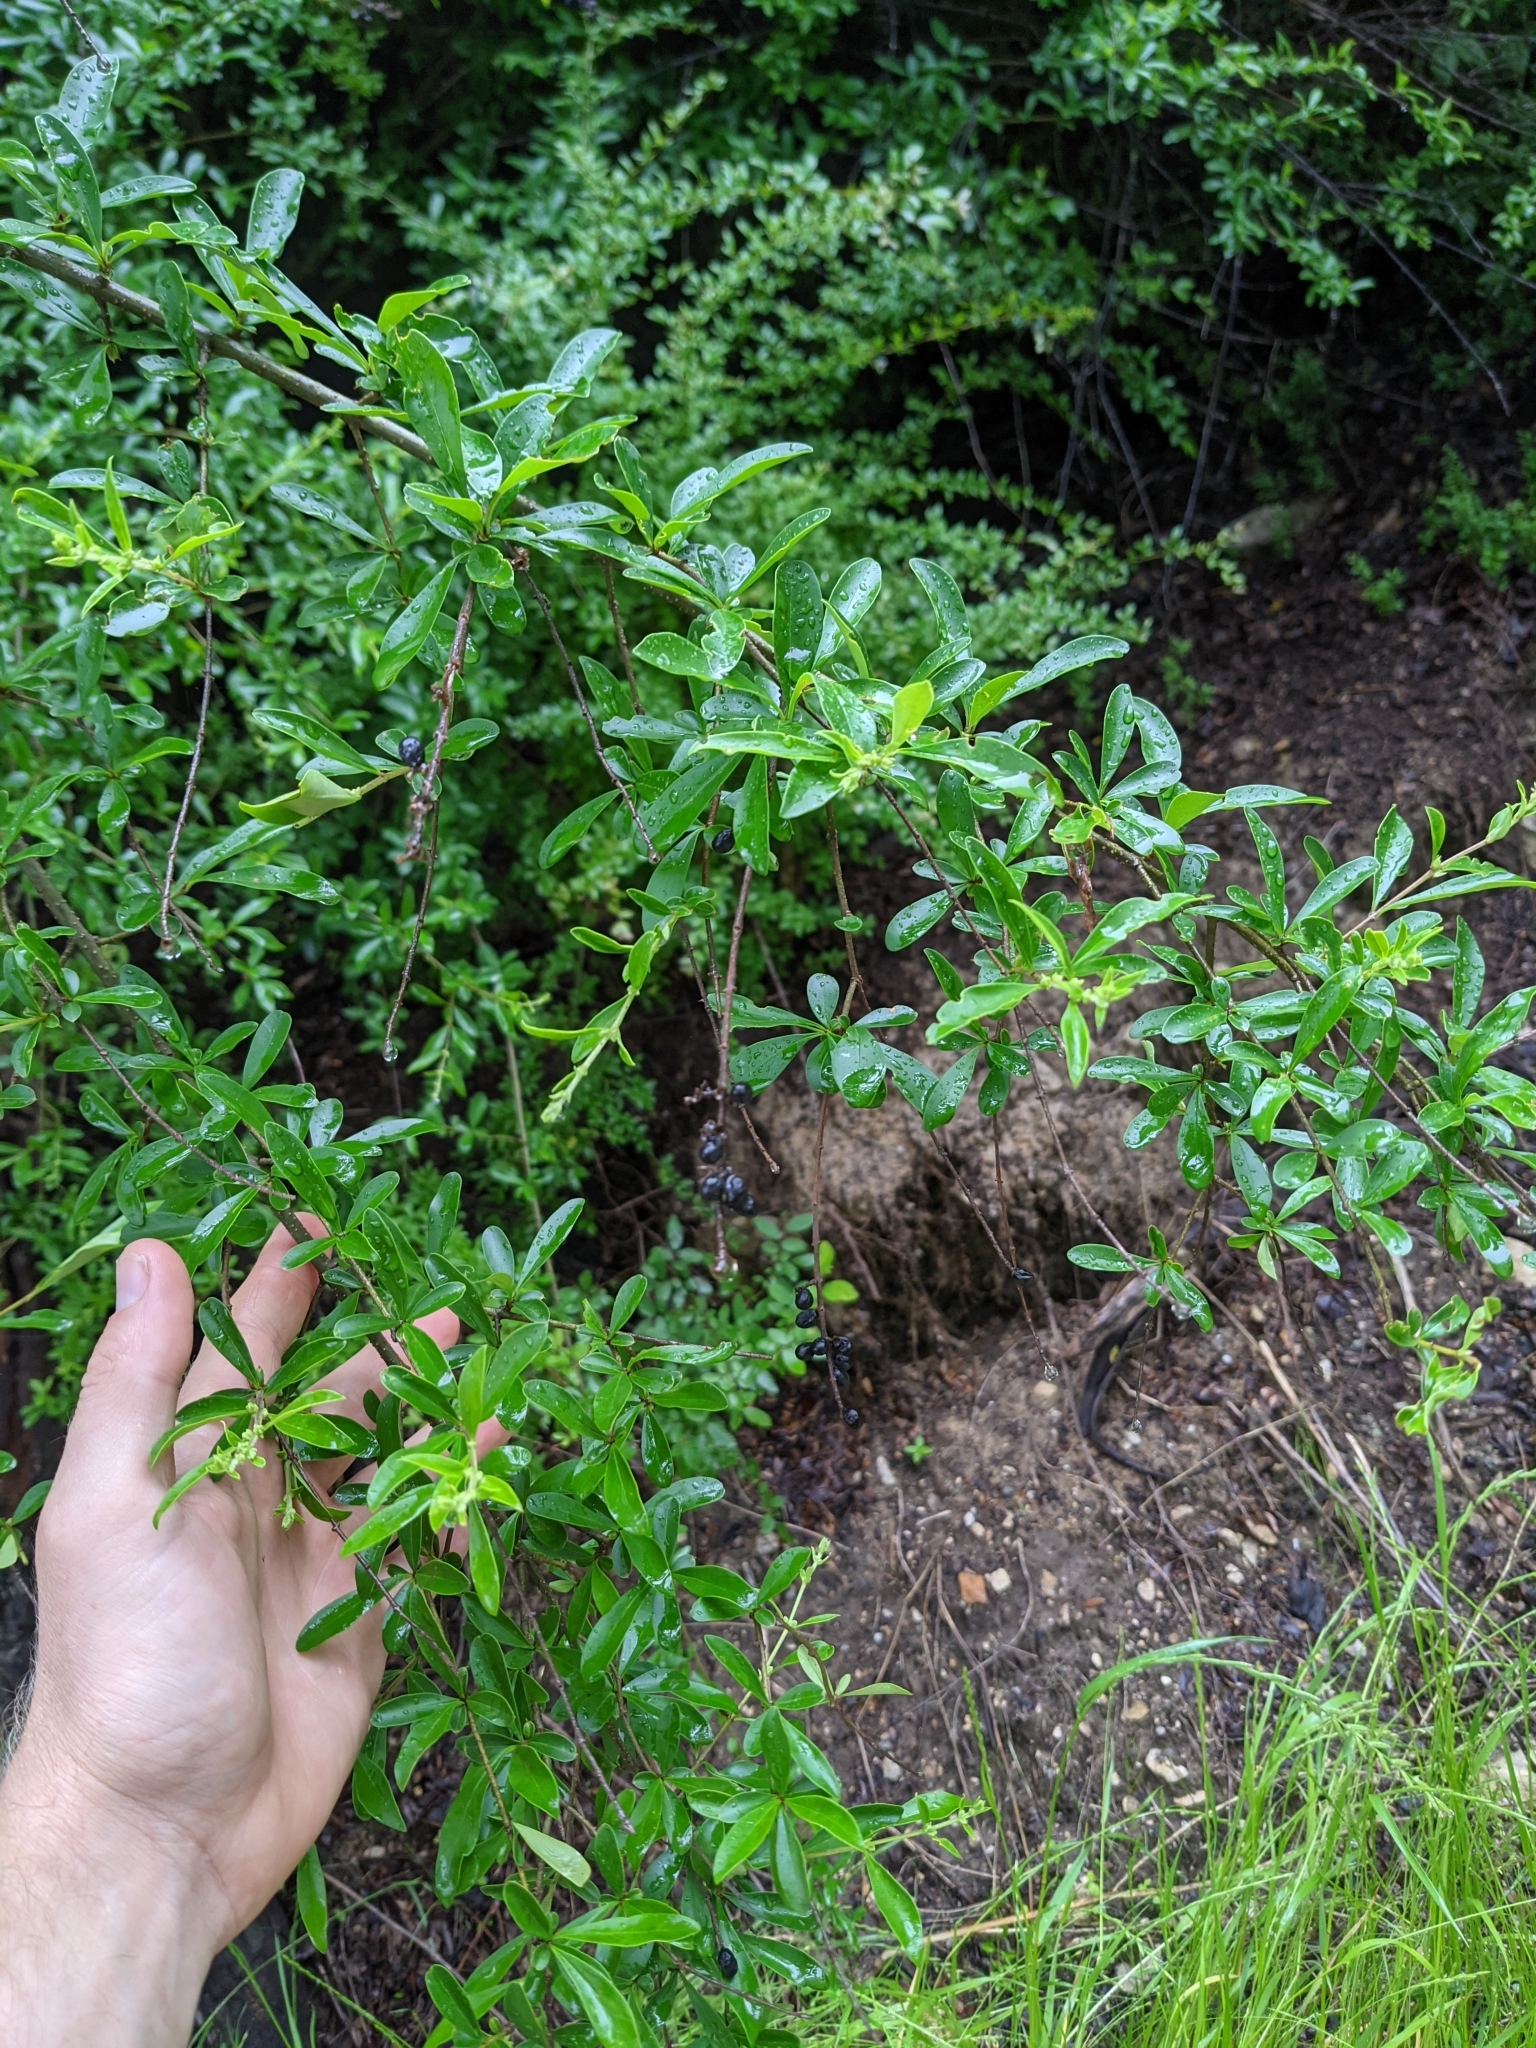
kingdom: Plantae
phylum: Tracheophyta
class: Magnoliopsida
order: Lamiales
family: Oleaceae
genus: Ligustrum
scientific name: Ligustrum quihoui
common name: Waxyleaf privet
